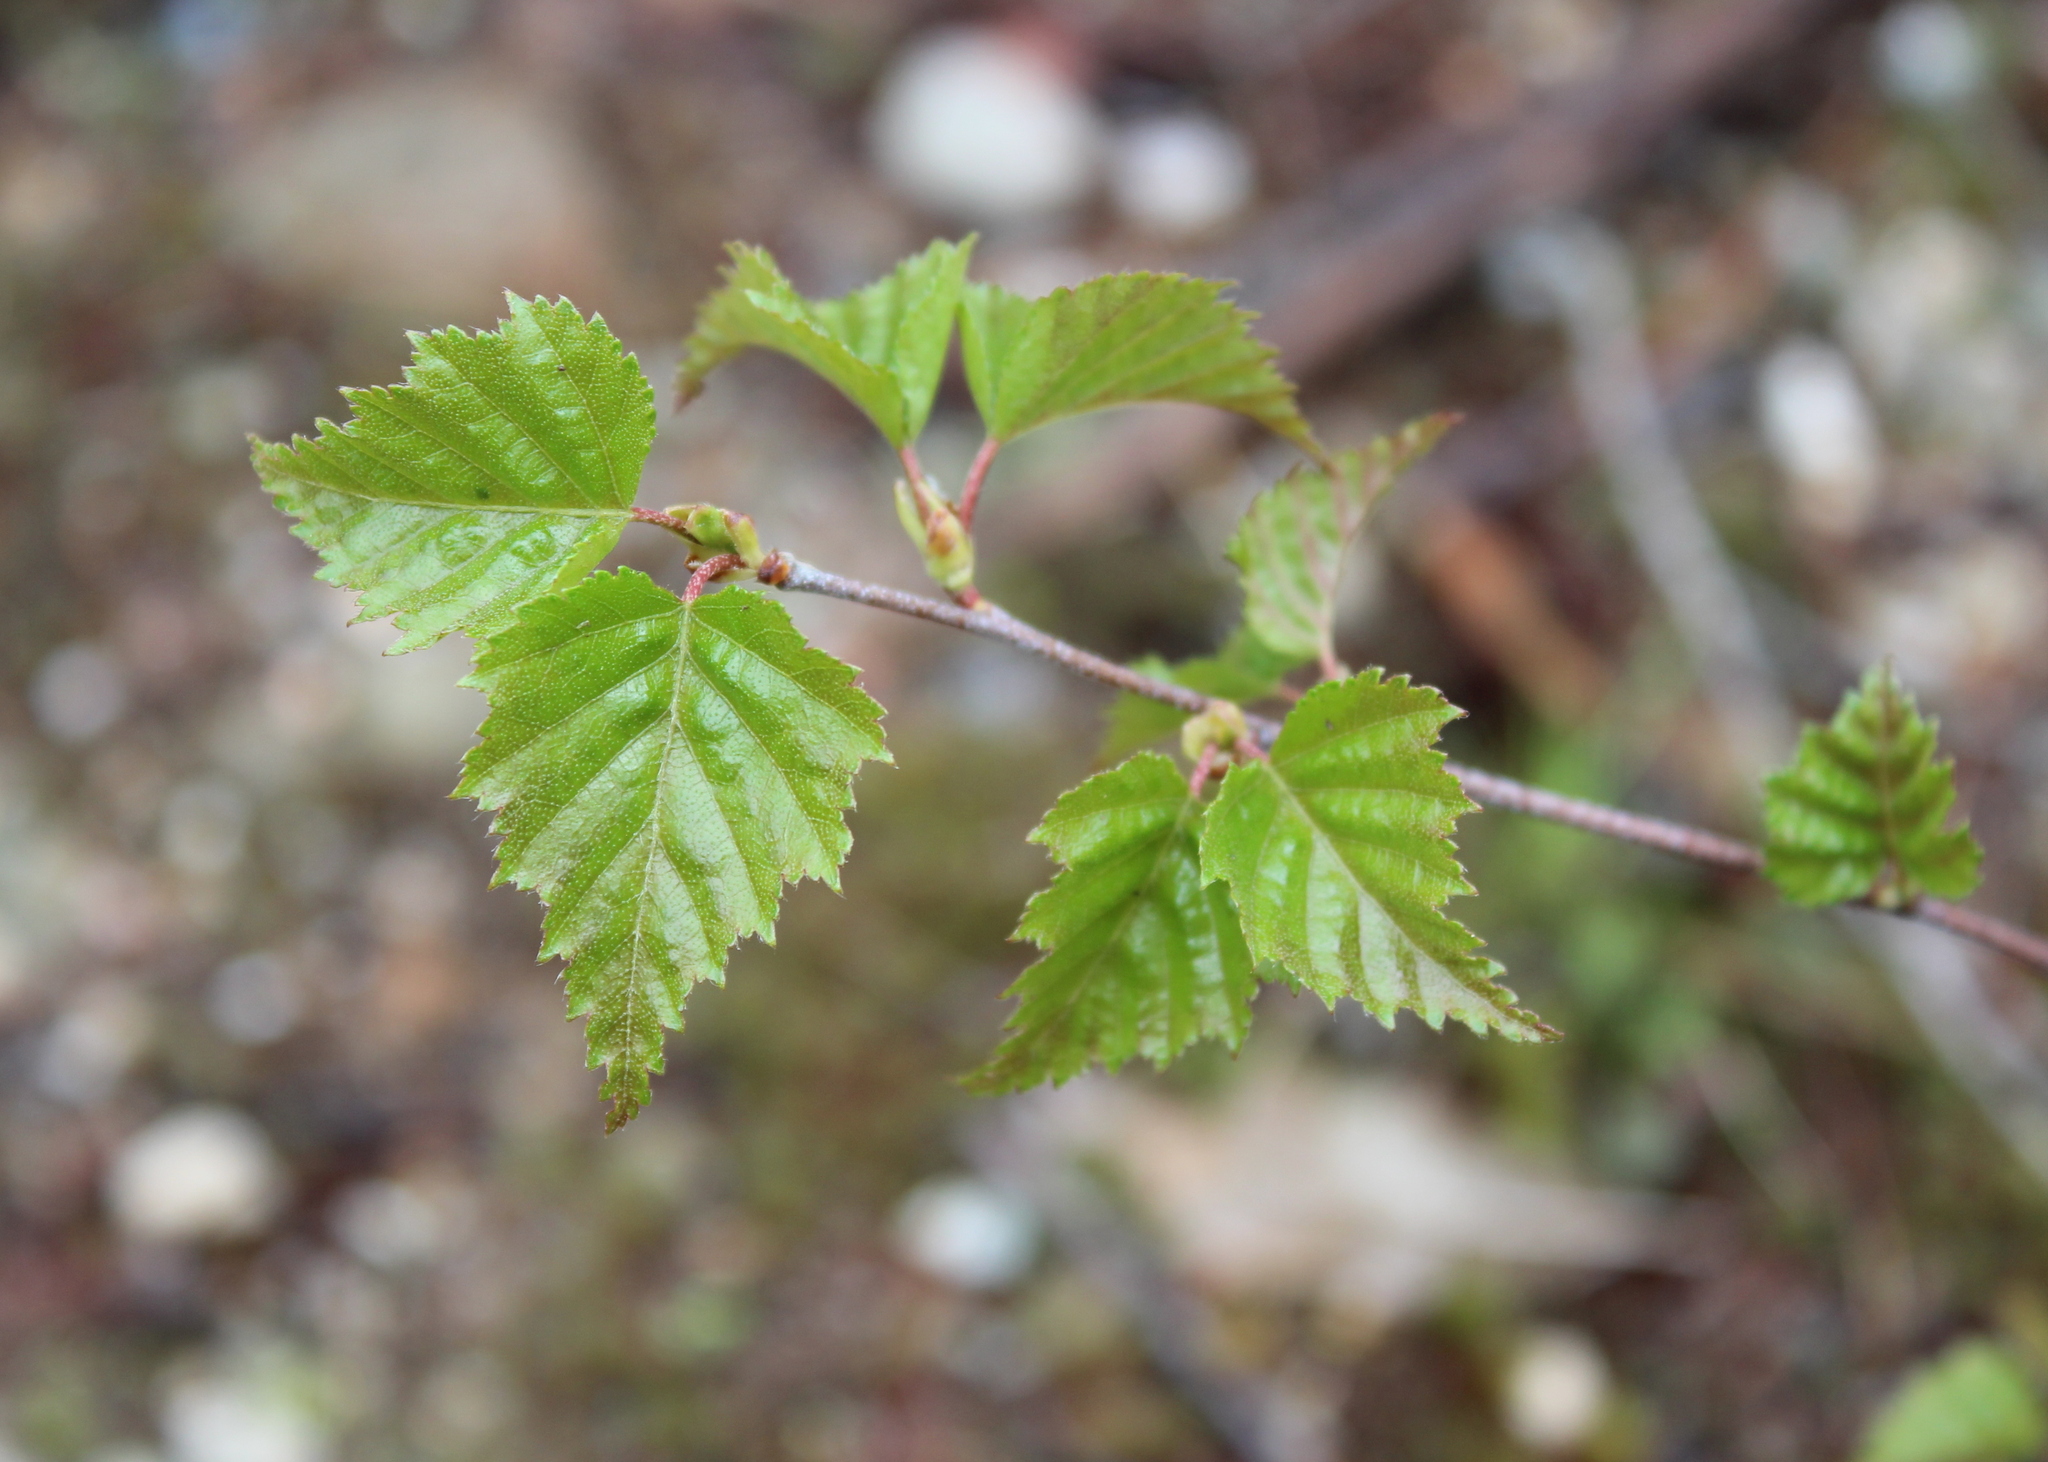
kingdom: Plantae
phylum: Tracheophyta
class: Magnoliopsida
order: Fagales
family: Betulaceae
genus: Betula
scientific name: Betula populifolia
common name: Fire birch
